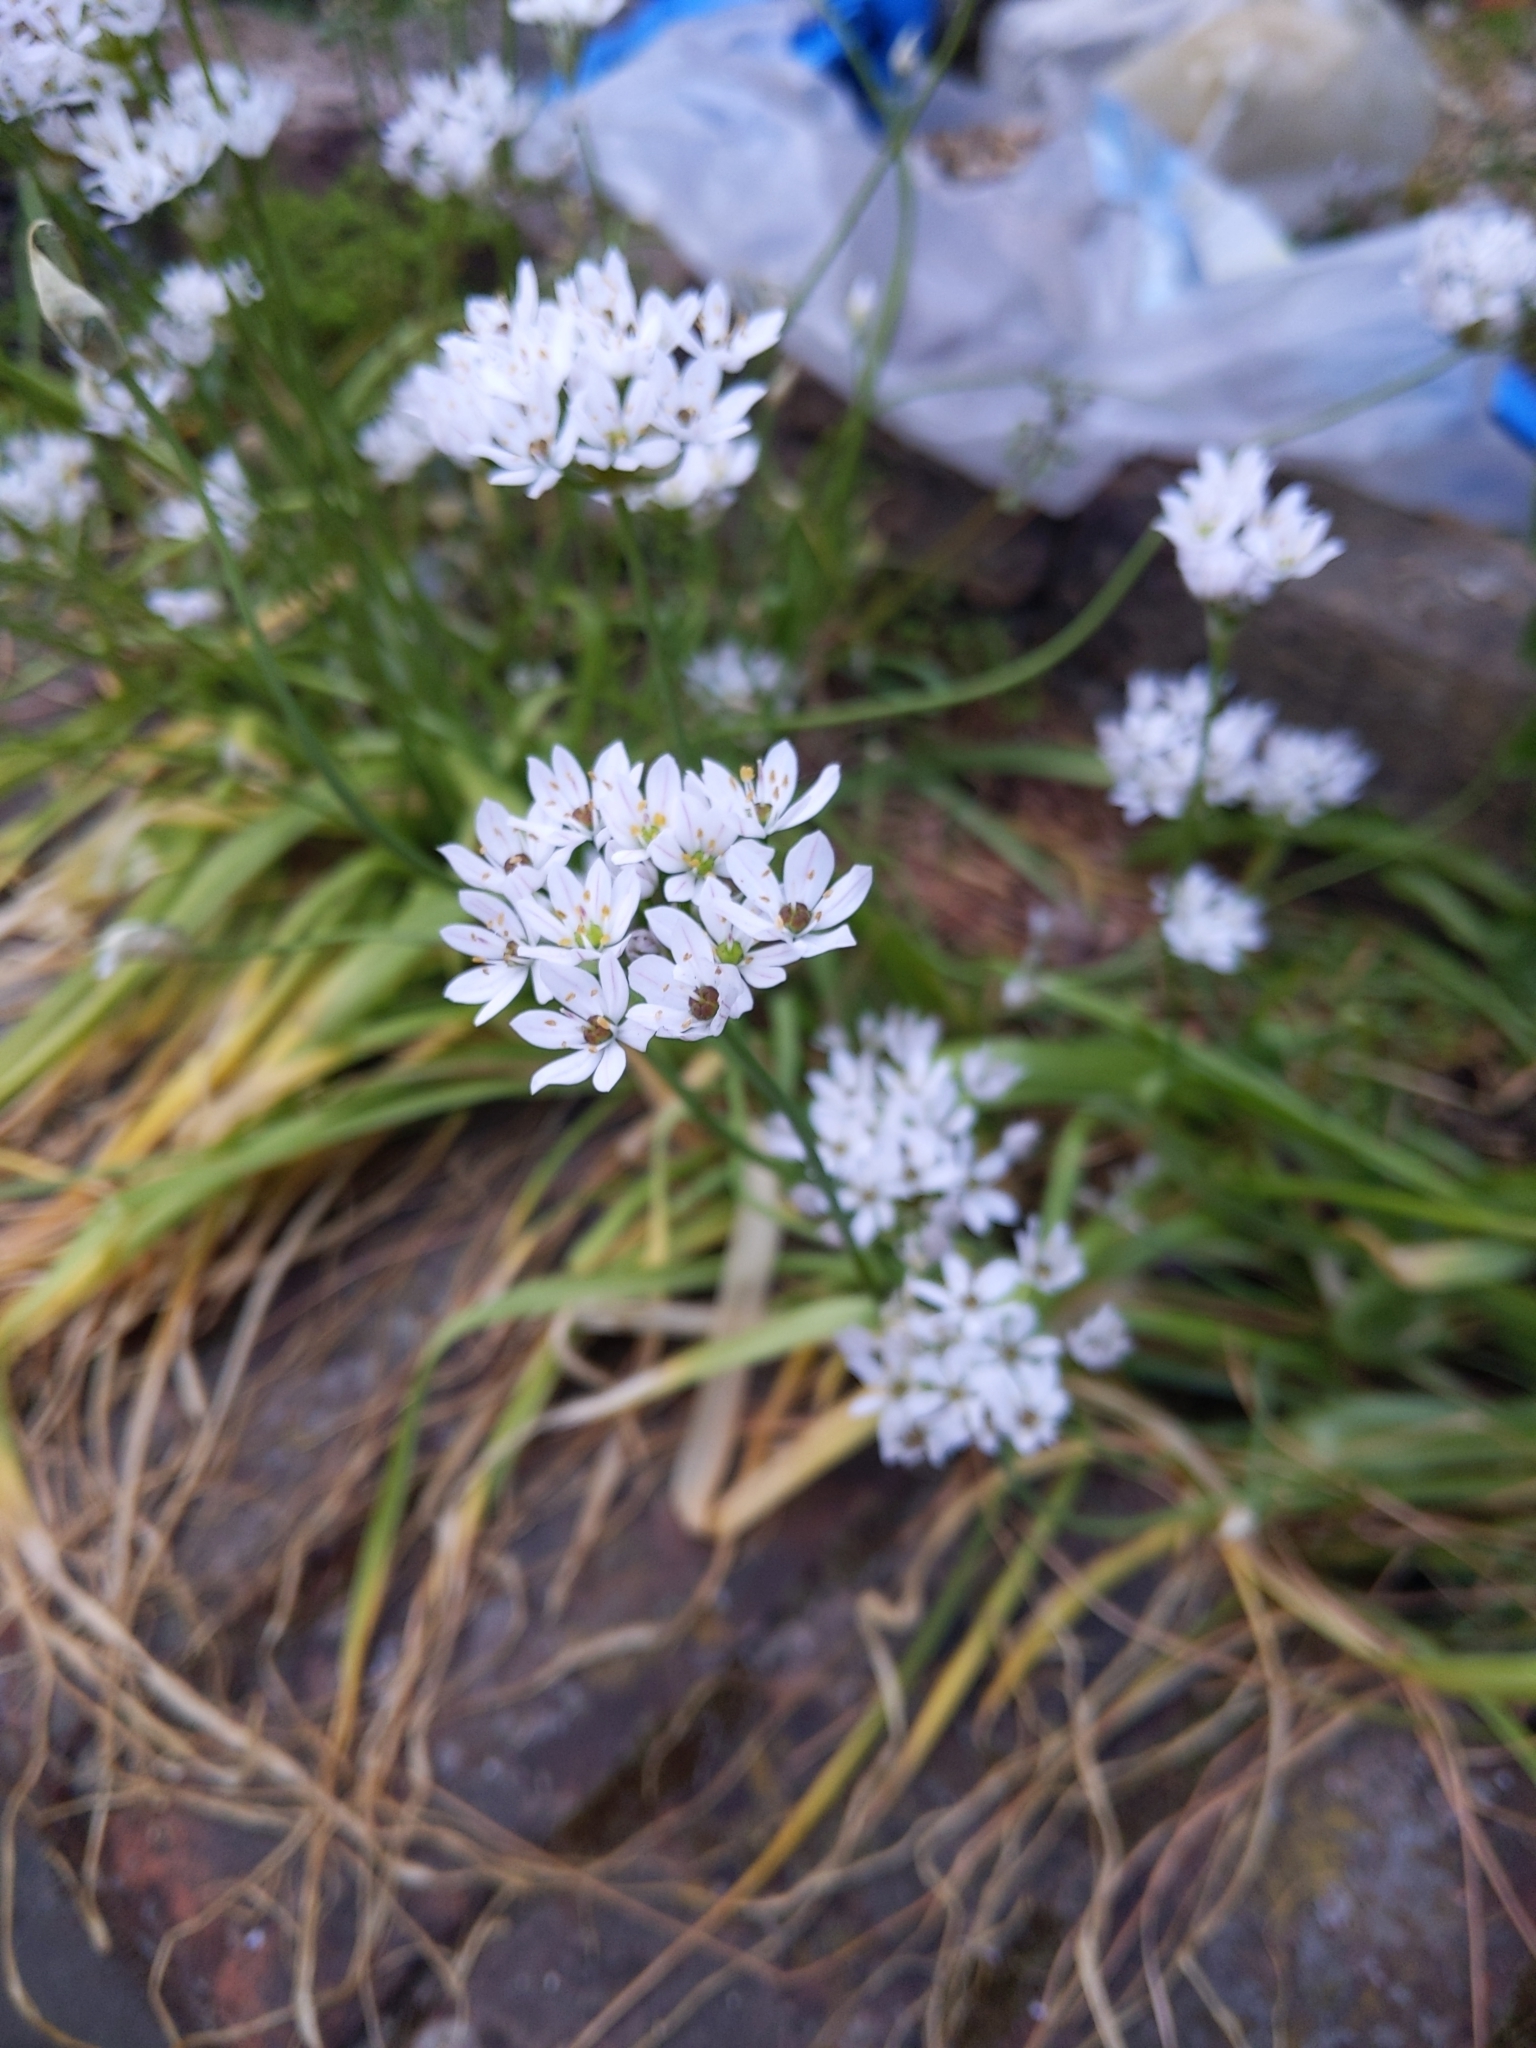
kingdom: Plantae
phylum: Tracheophyta
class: Liliopsida
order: Asparagales
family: Amaryllidaceae
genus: Allium
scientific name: Allium subhirsutum
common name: Hairy garlic
